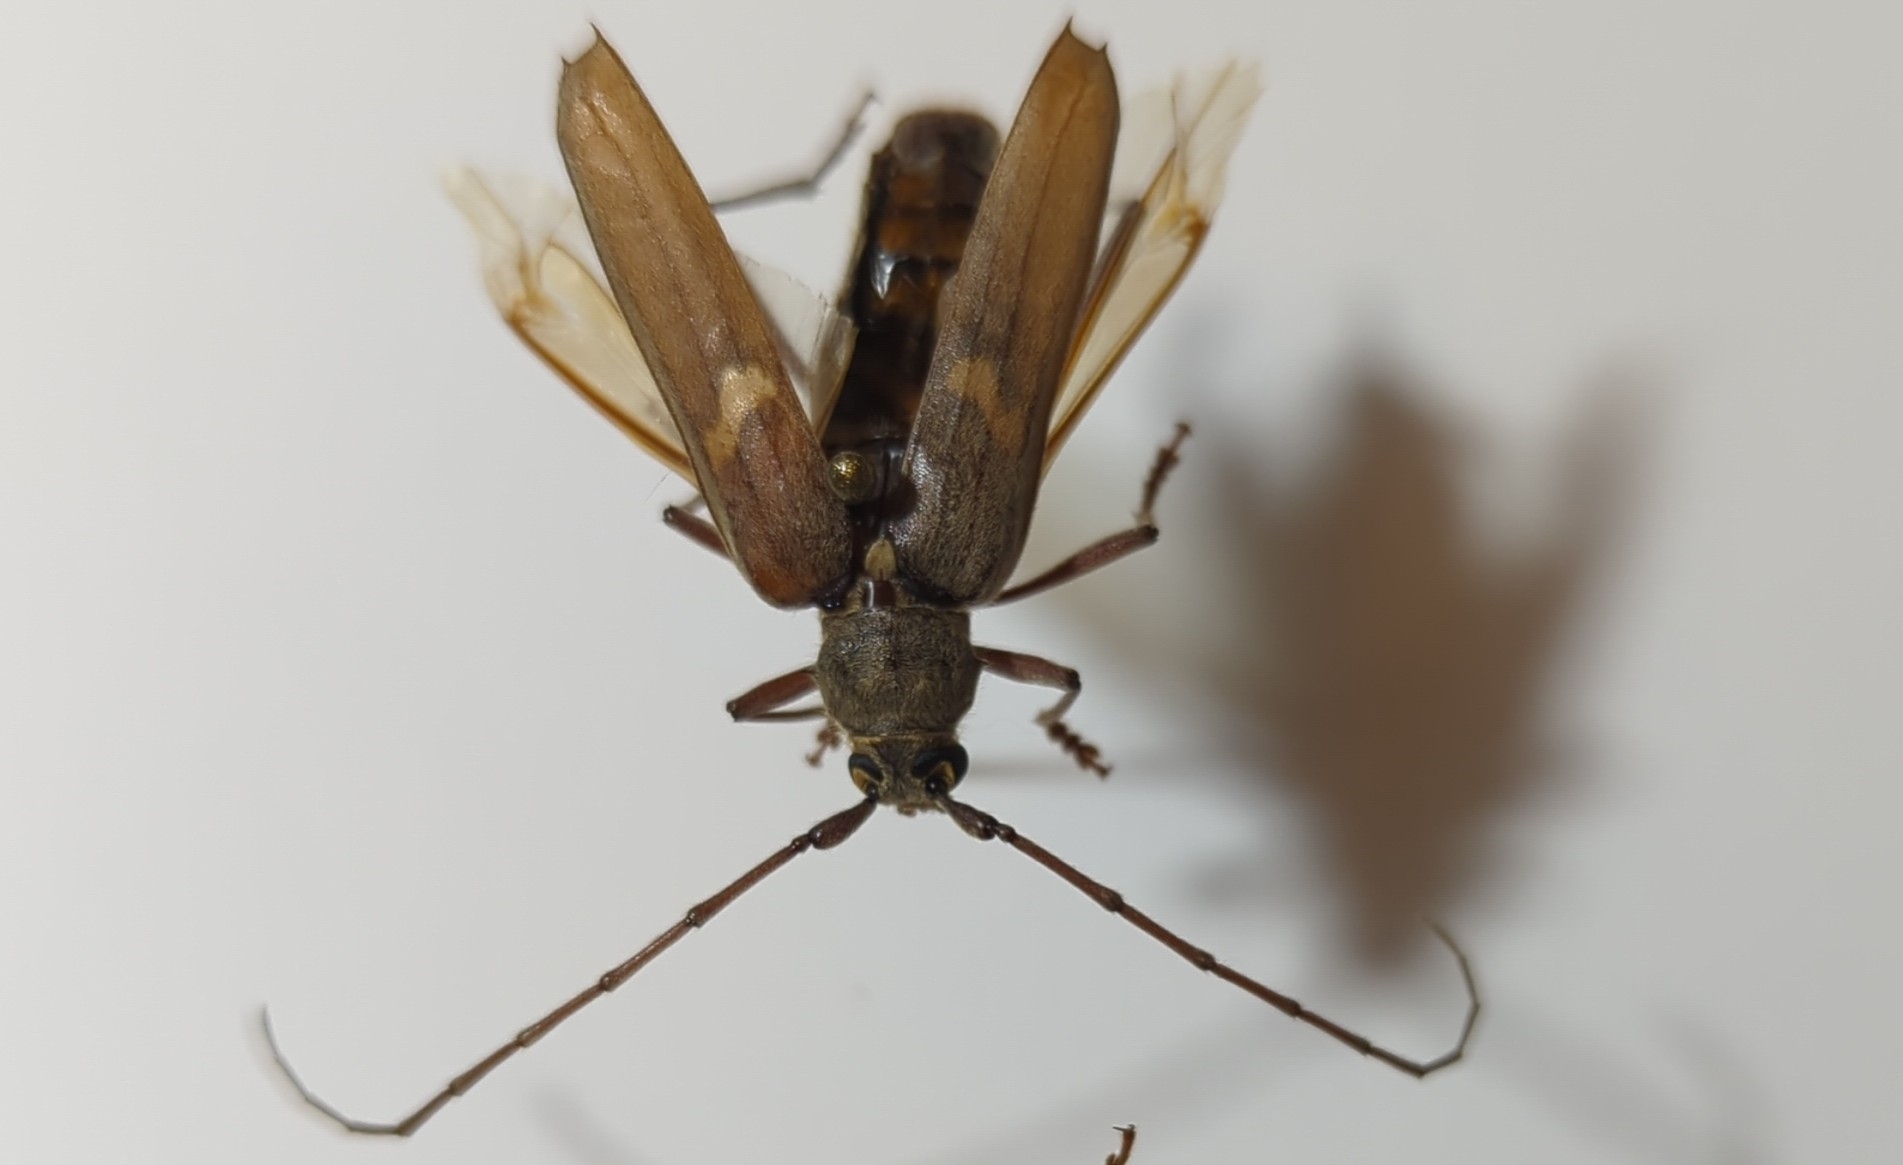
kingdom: Animalia
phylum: Arthropoda
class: Insecta
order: Coleoptera
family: Cerambycidae
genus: Knulliana
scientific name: Knulliana cincta
